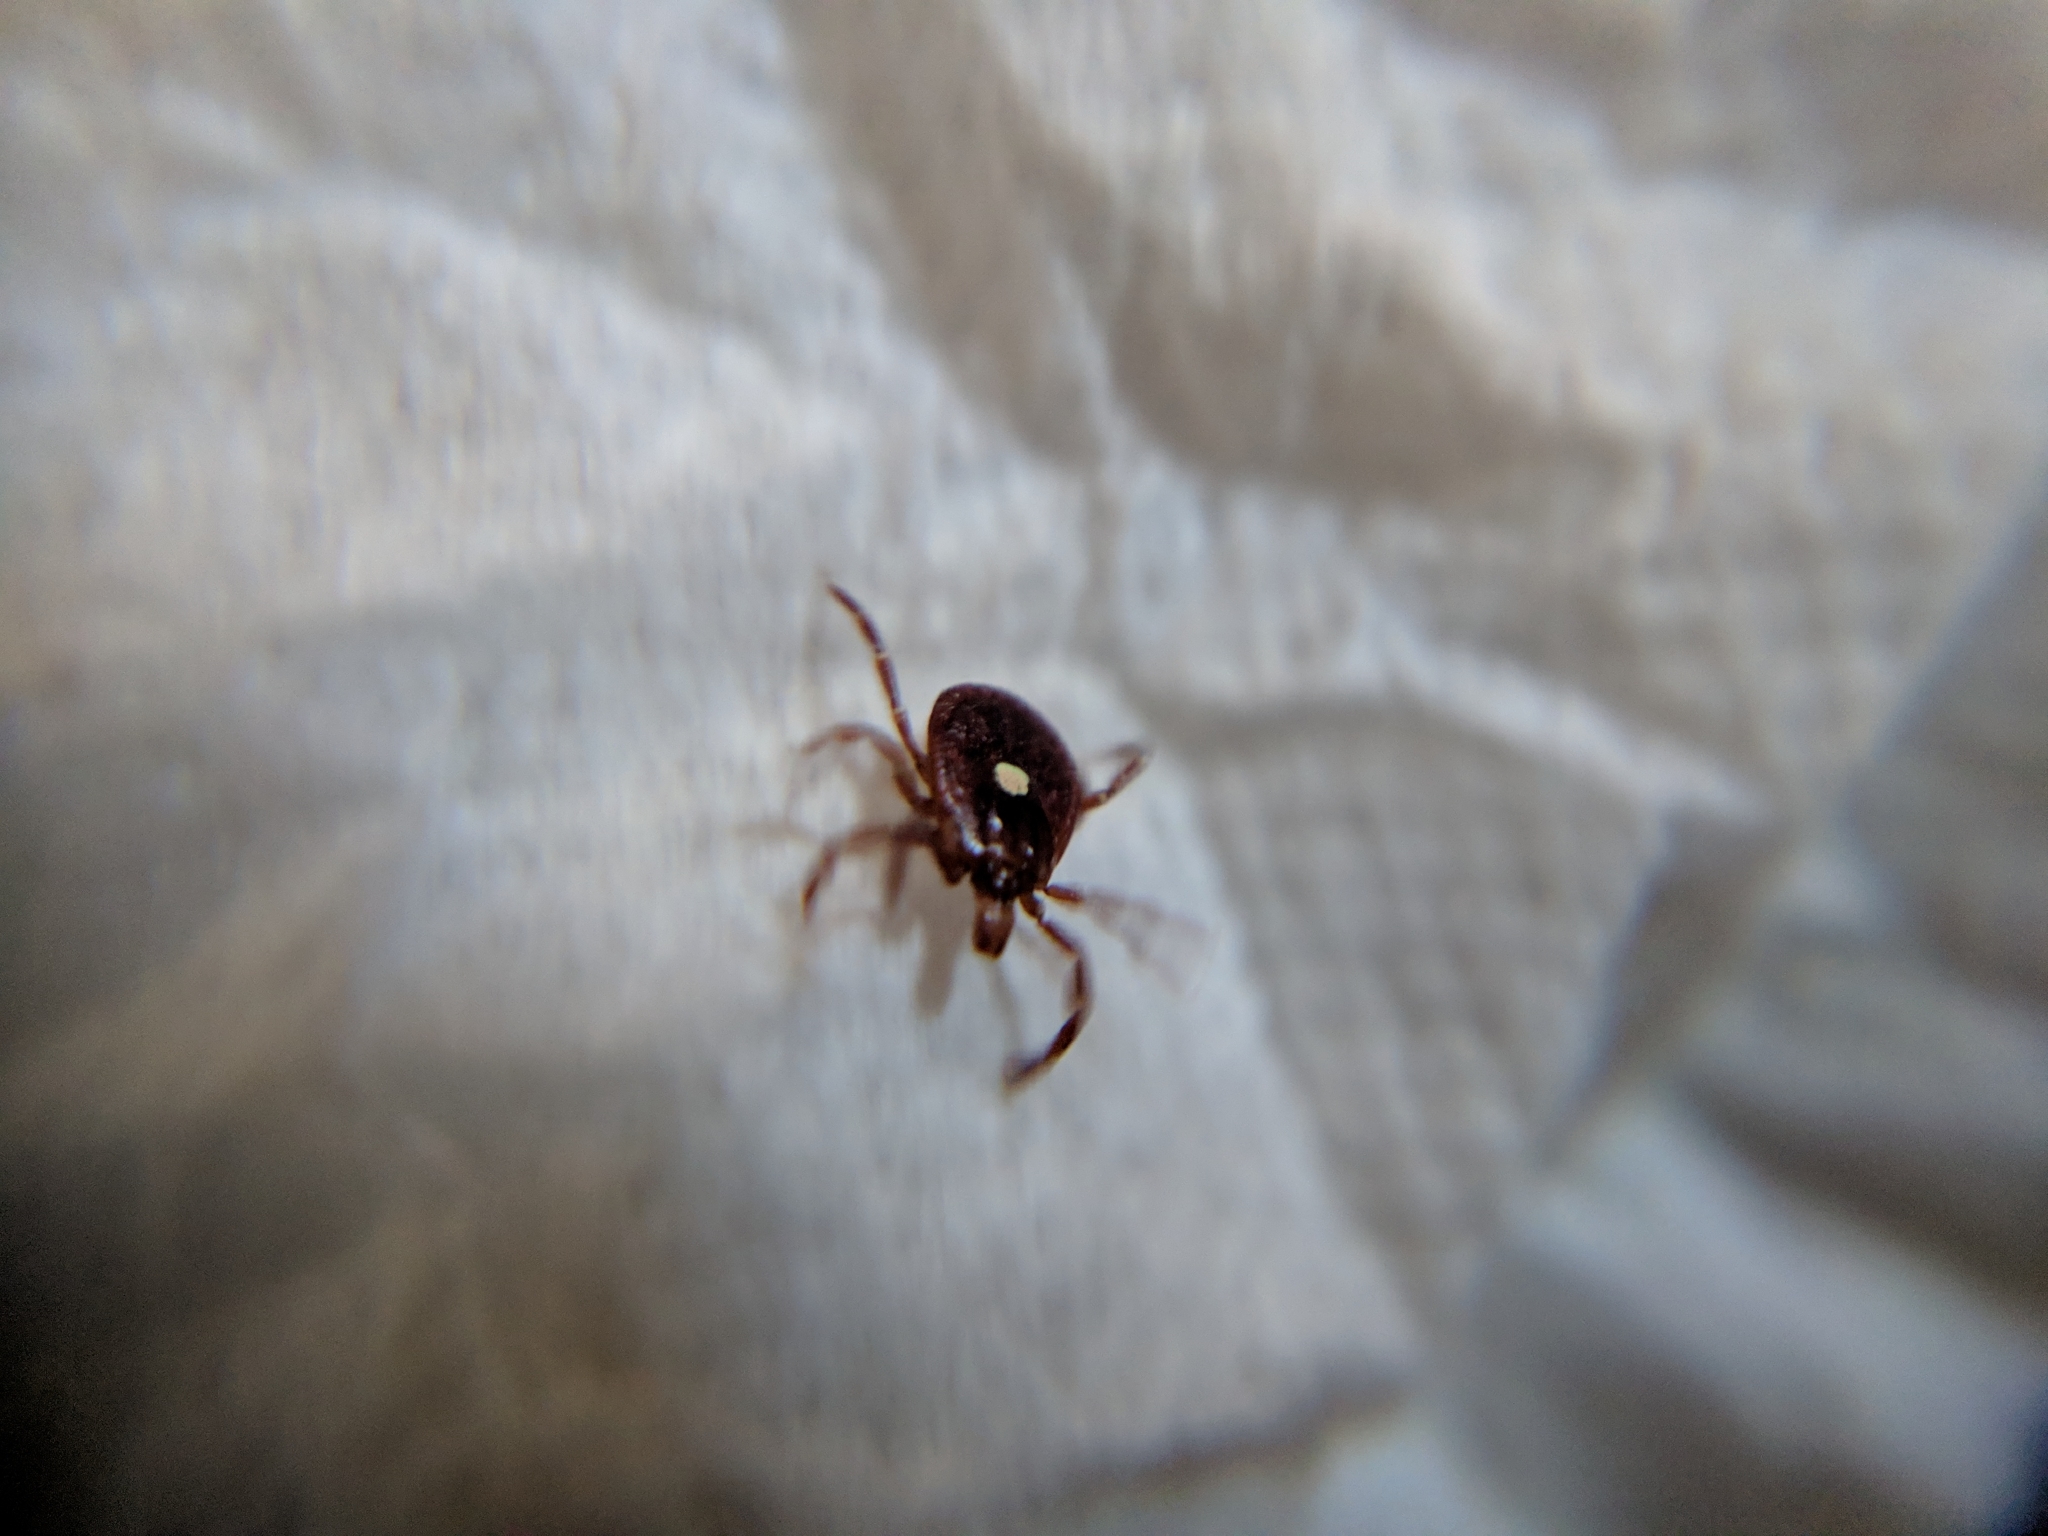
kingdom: Animalia
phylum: Arthropoda
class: Arachnida
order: Ixodida
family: Ixodidae
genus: Amblyomma
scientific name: Amblyomma americanum
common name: Lone star tick
